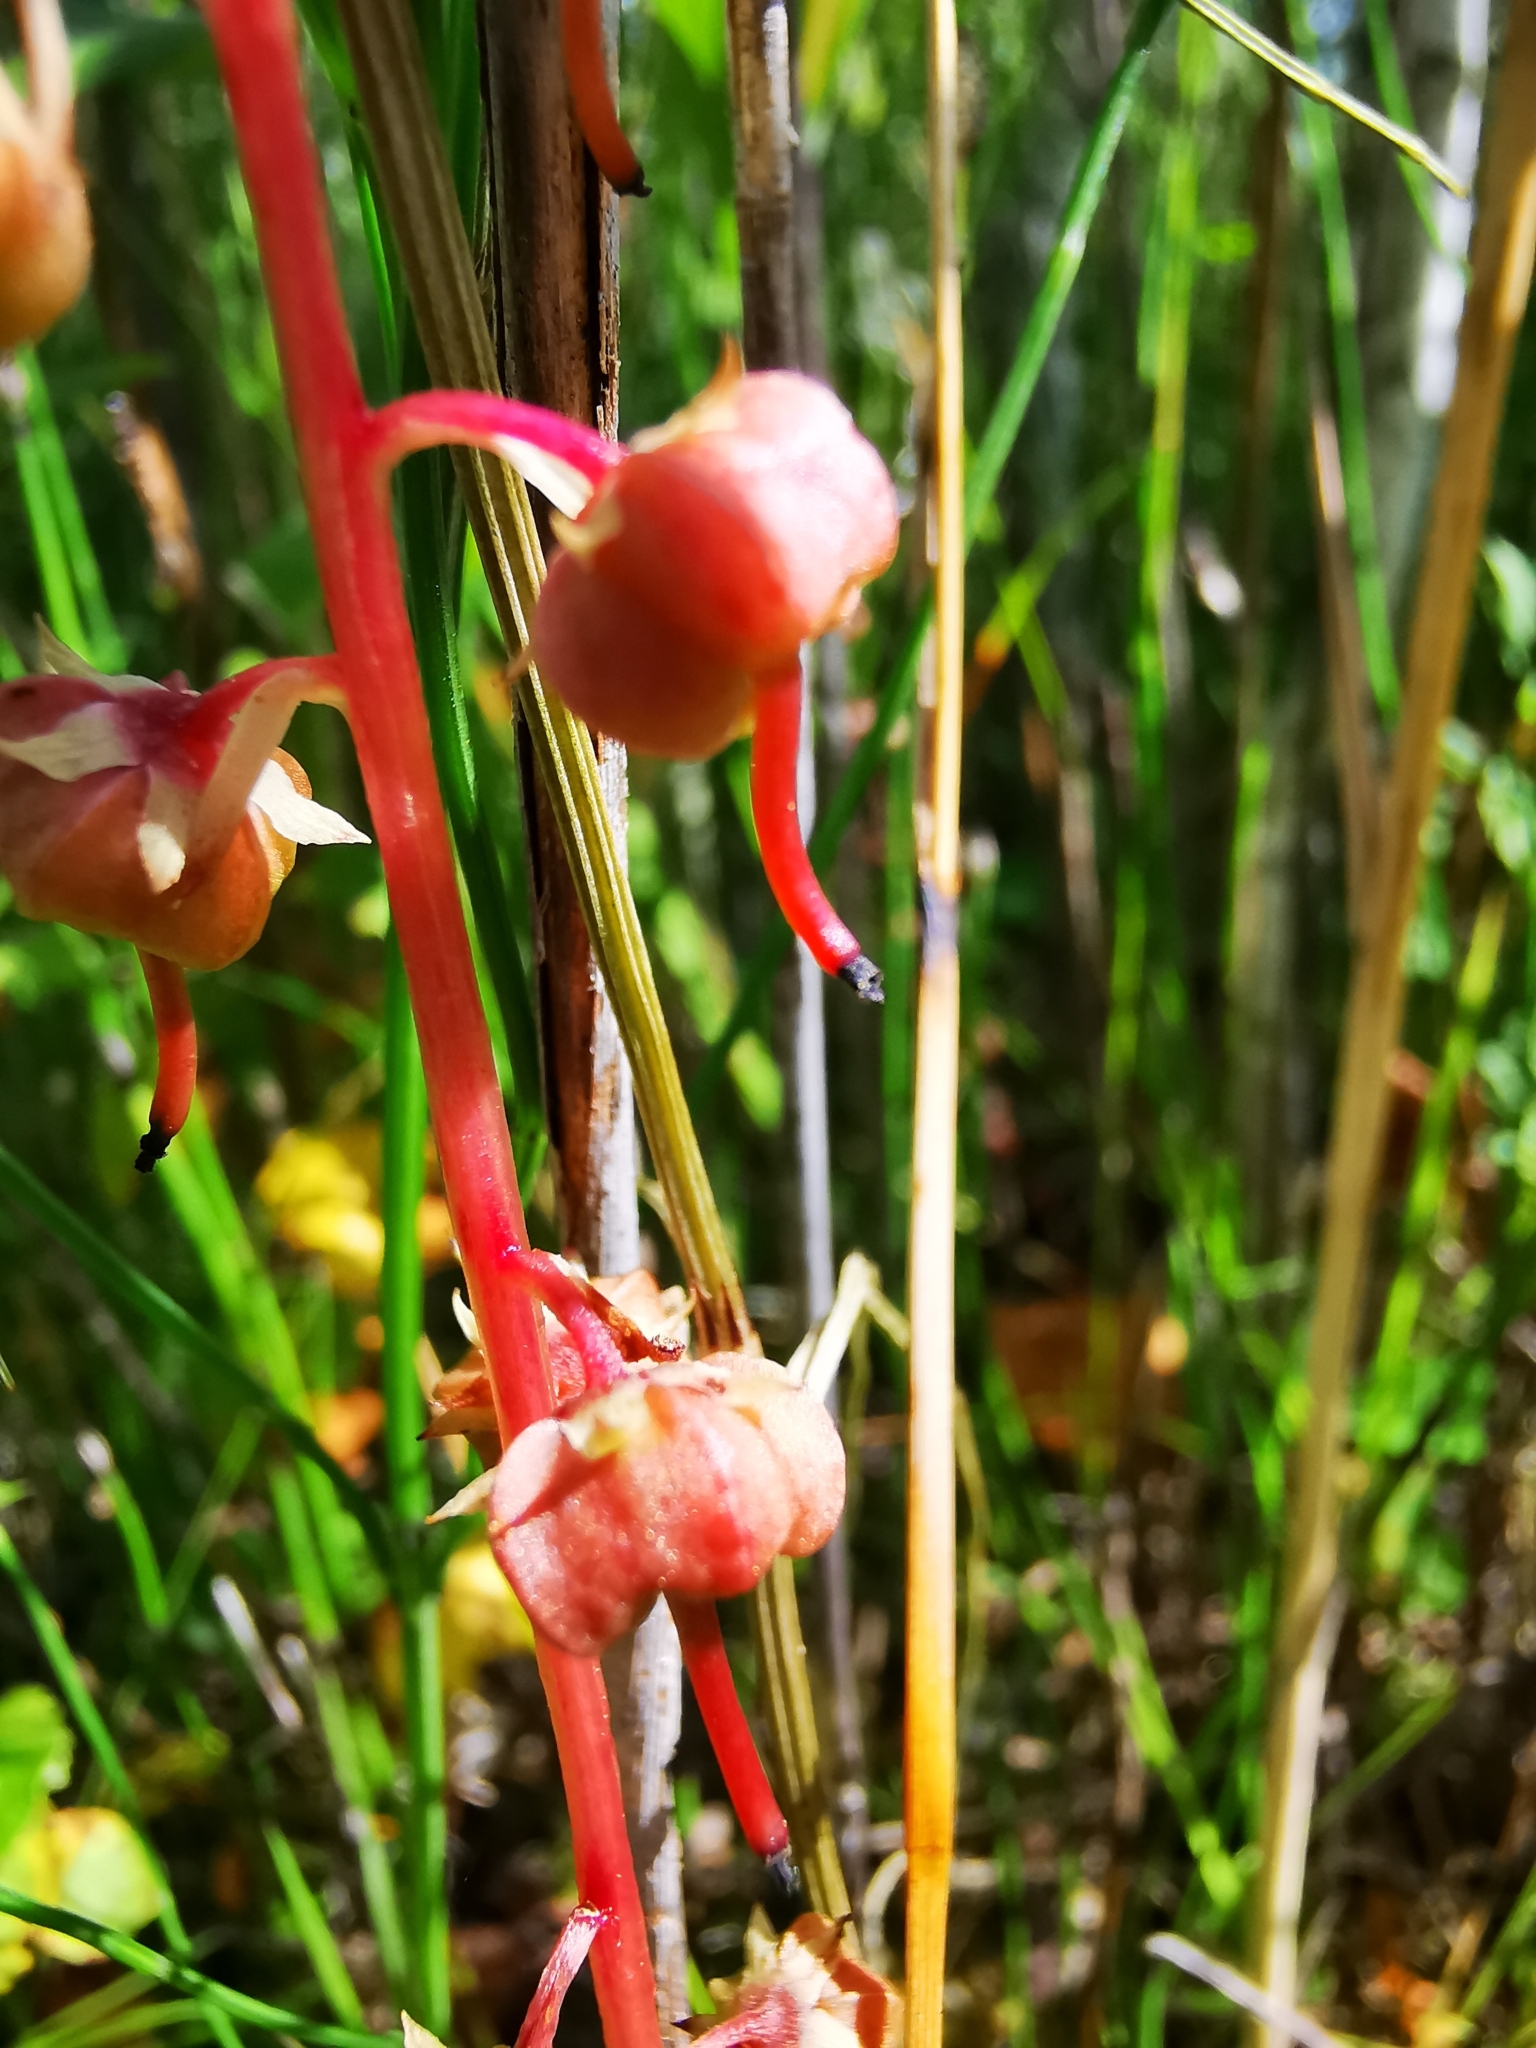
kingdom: Plantae
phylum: Tracheophyta
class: Magnoliopsida
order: Ericales
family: Ericaceae
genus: Pyrola
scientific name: Pyrola rotundifolia
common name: Round-leaved wintergreen
